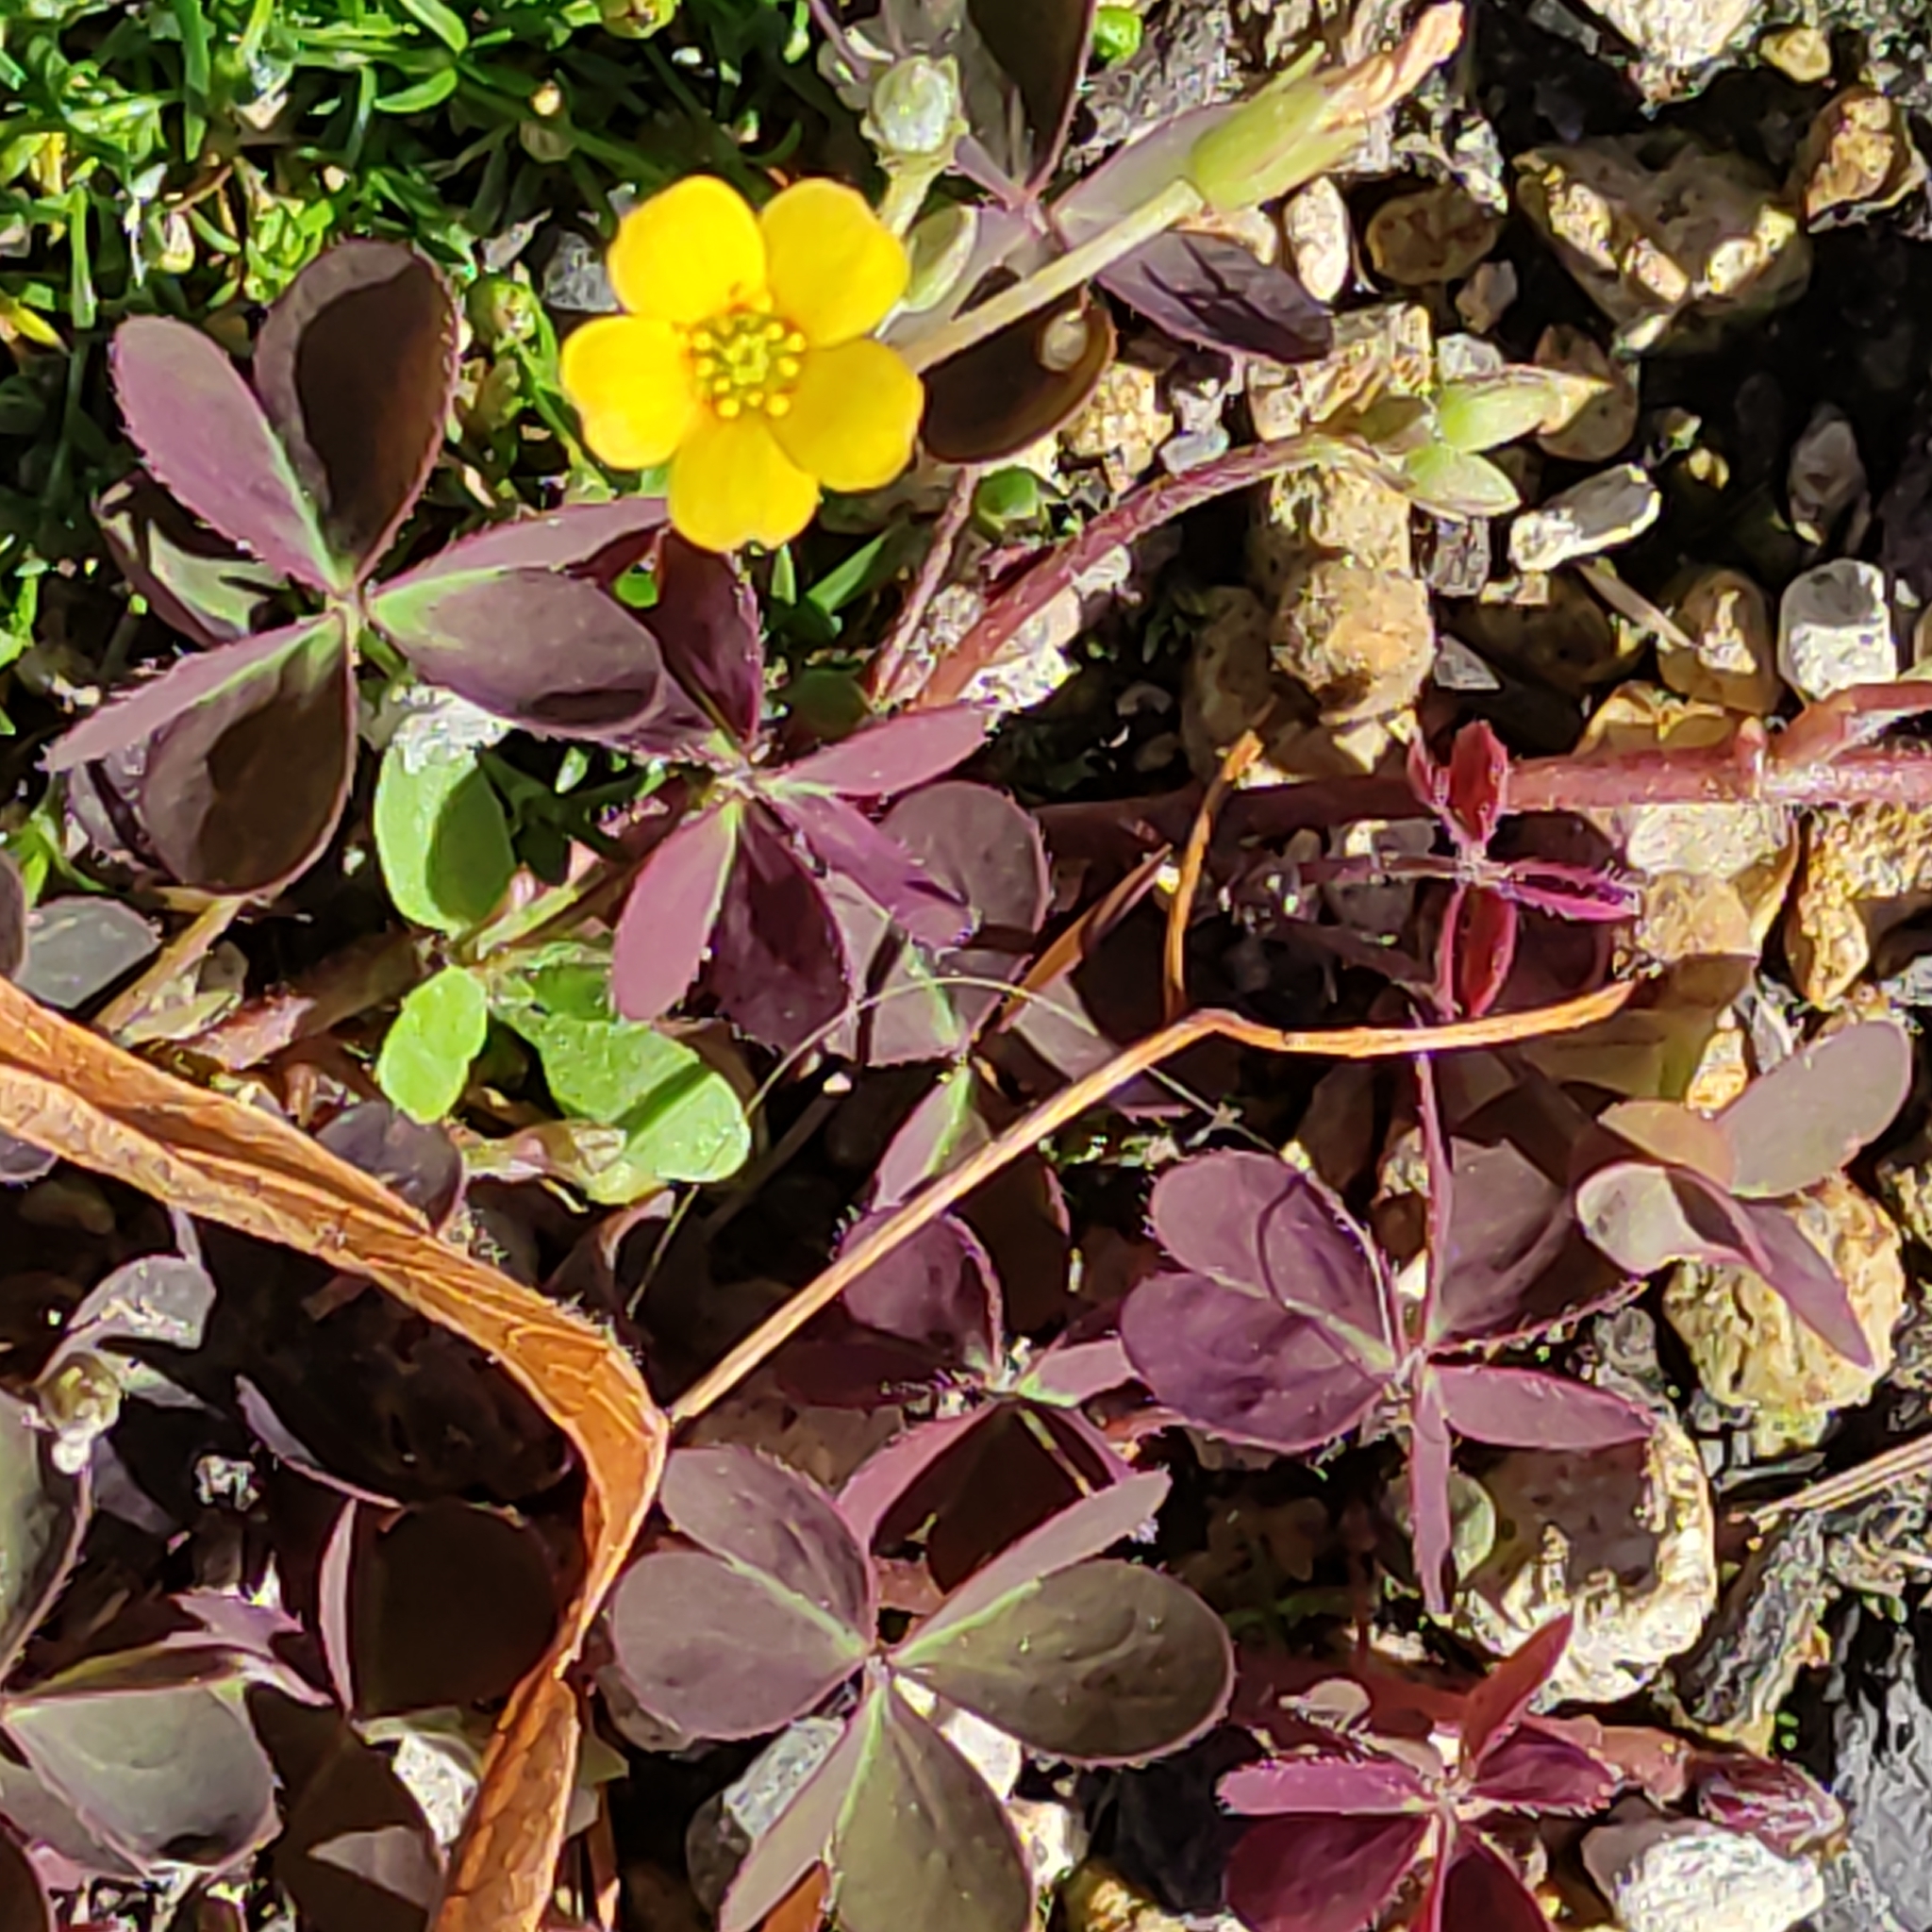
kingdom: Plantae
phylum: Tracheophyta
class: Magnoliopsida
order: Oxalidales
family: Oxalidaceae
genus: Oxalis
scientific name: Oxalis corniculata
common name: Procumbent yellow-sorrel
